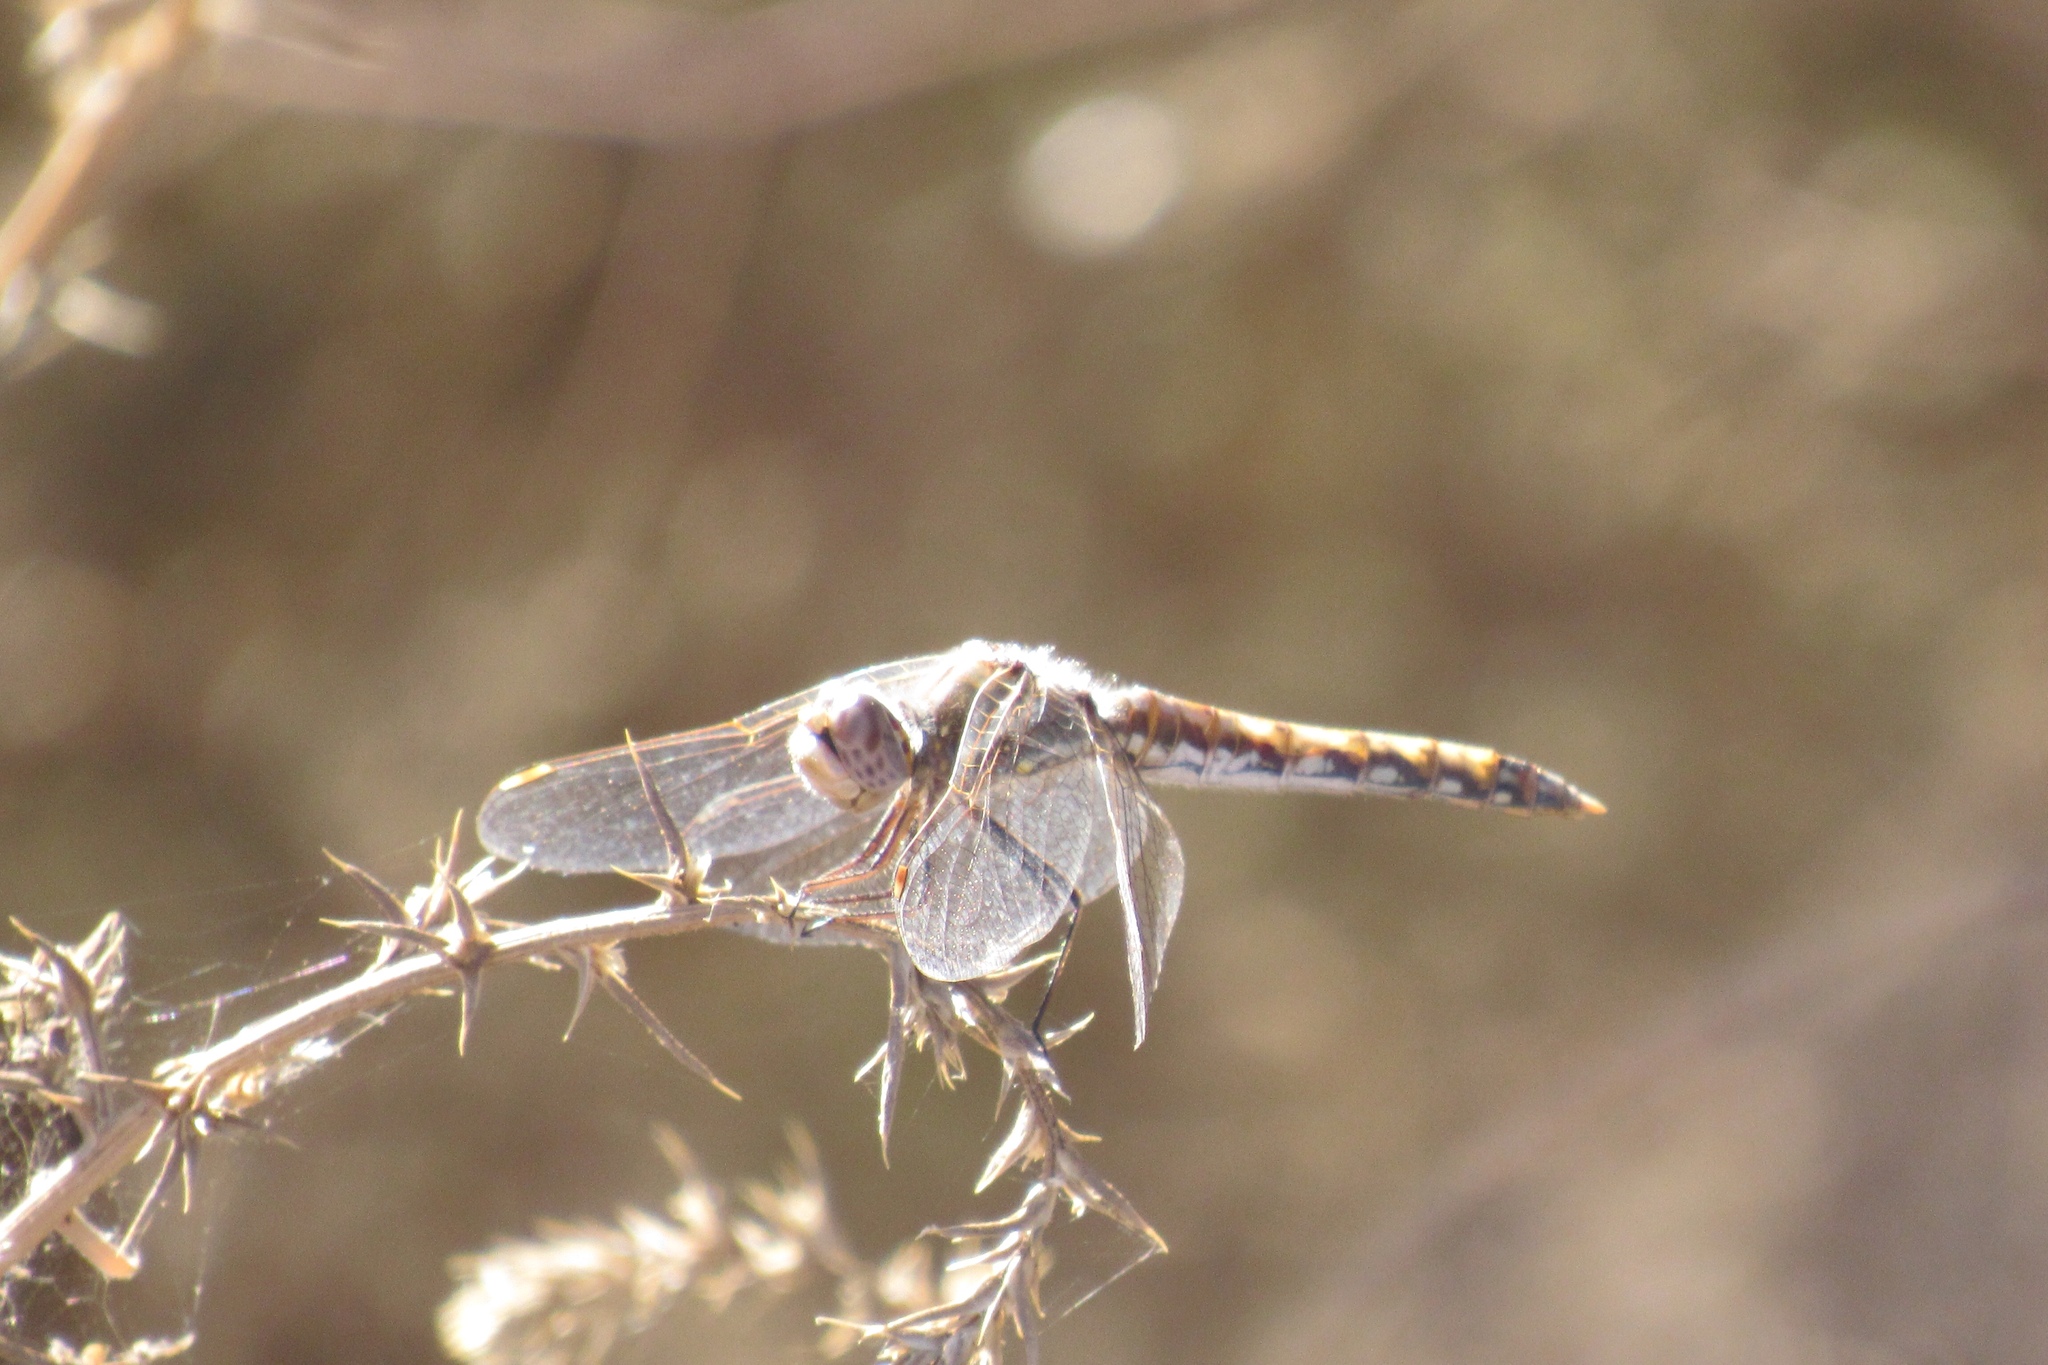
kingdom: Animalia
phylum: Arthropoda
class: Insecta
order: Odonata
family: Libellulidae
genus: Sympetrum
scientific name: Sympetrum corruptum
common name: Variegated meadowhawk
